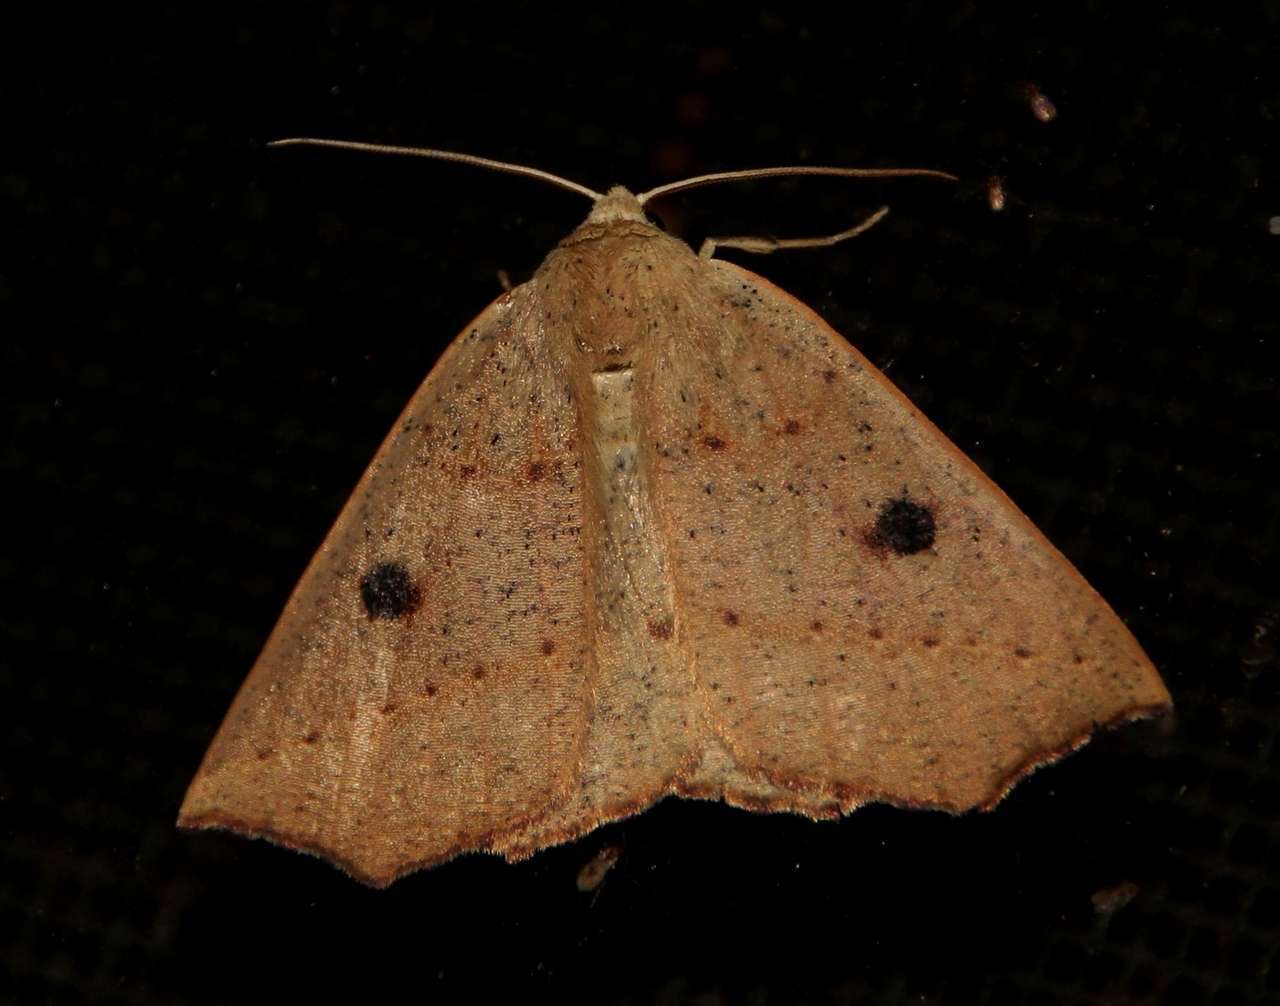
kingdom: Animalia
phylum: Arthropoda
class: Insecta
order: Lepidoptera
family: Geometridae
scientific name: Geometridae
